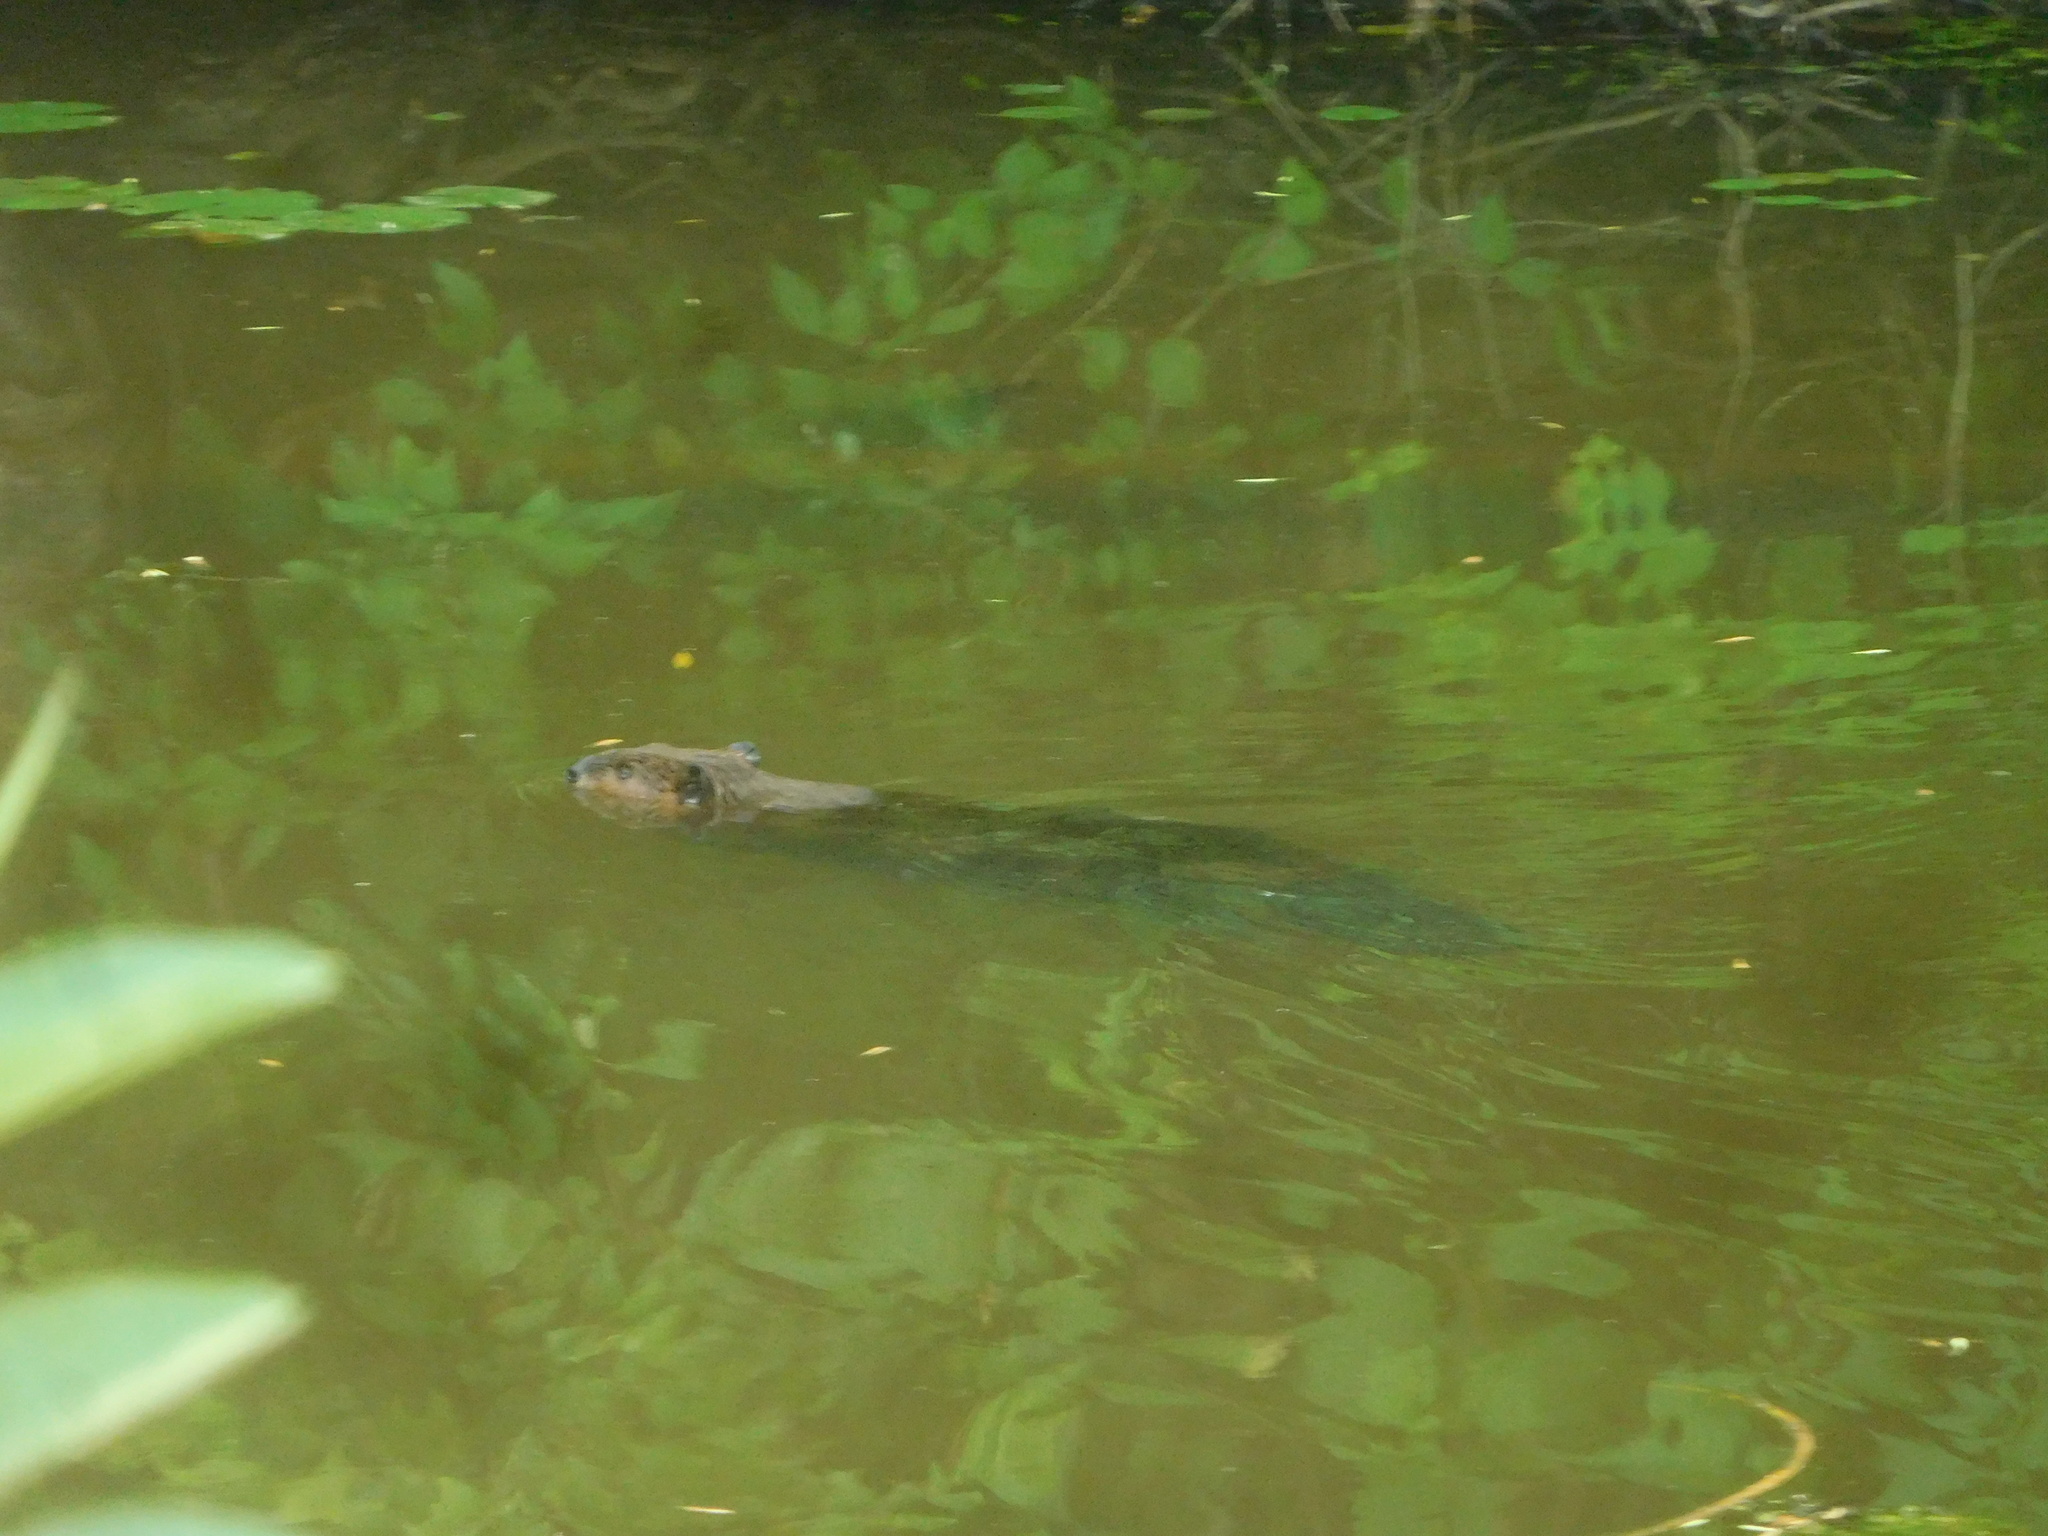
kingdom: Animalia
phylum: Chordata
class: Mammalia
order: Rodentia
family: Castoridae
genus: Castor
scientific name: Castor canadensis
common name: American beaver
